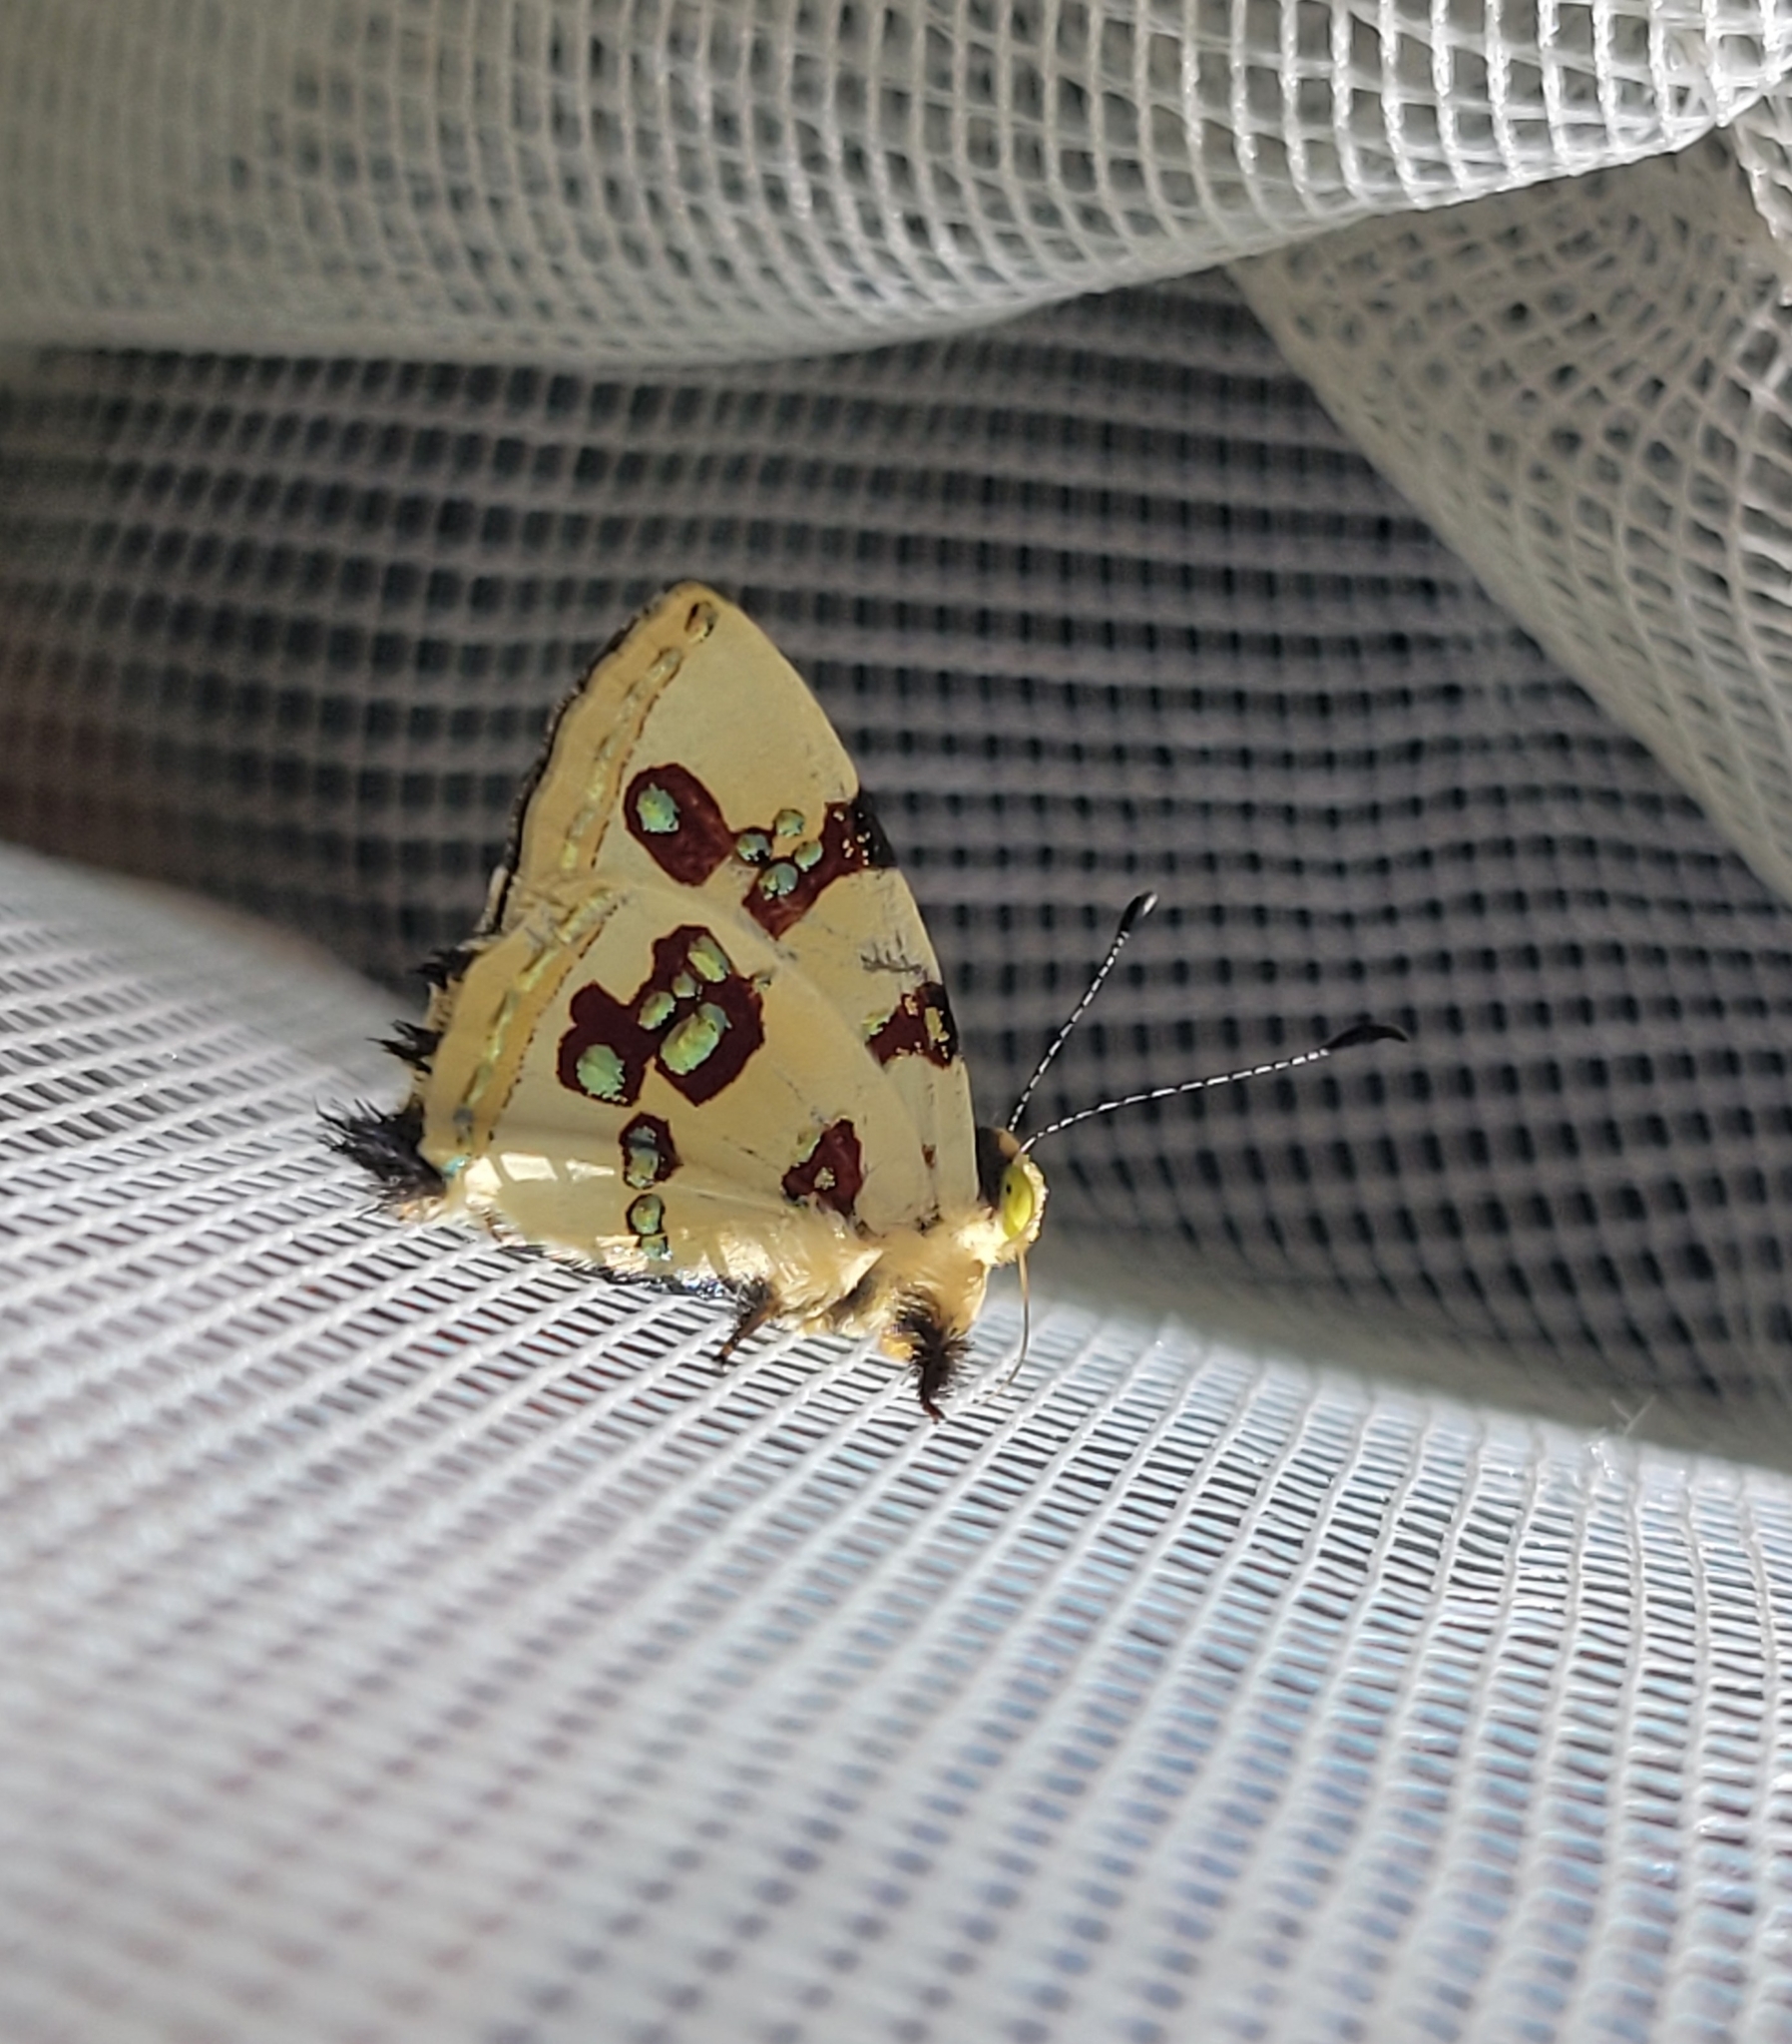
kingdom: Animalia
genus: Anteros
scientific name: Anteros formosus
